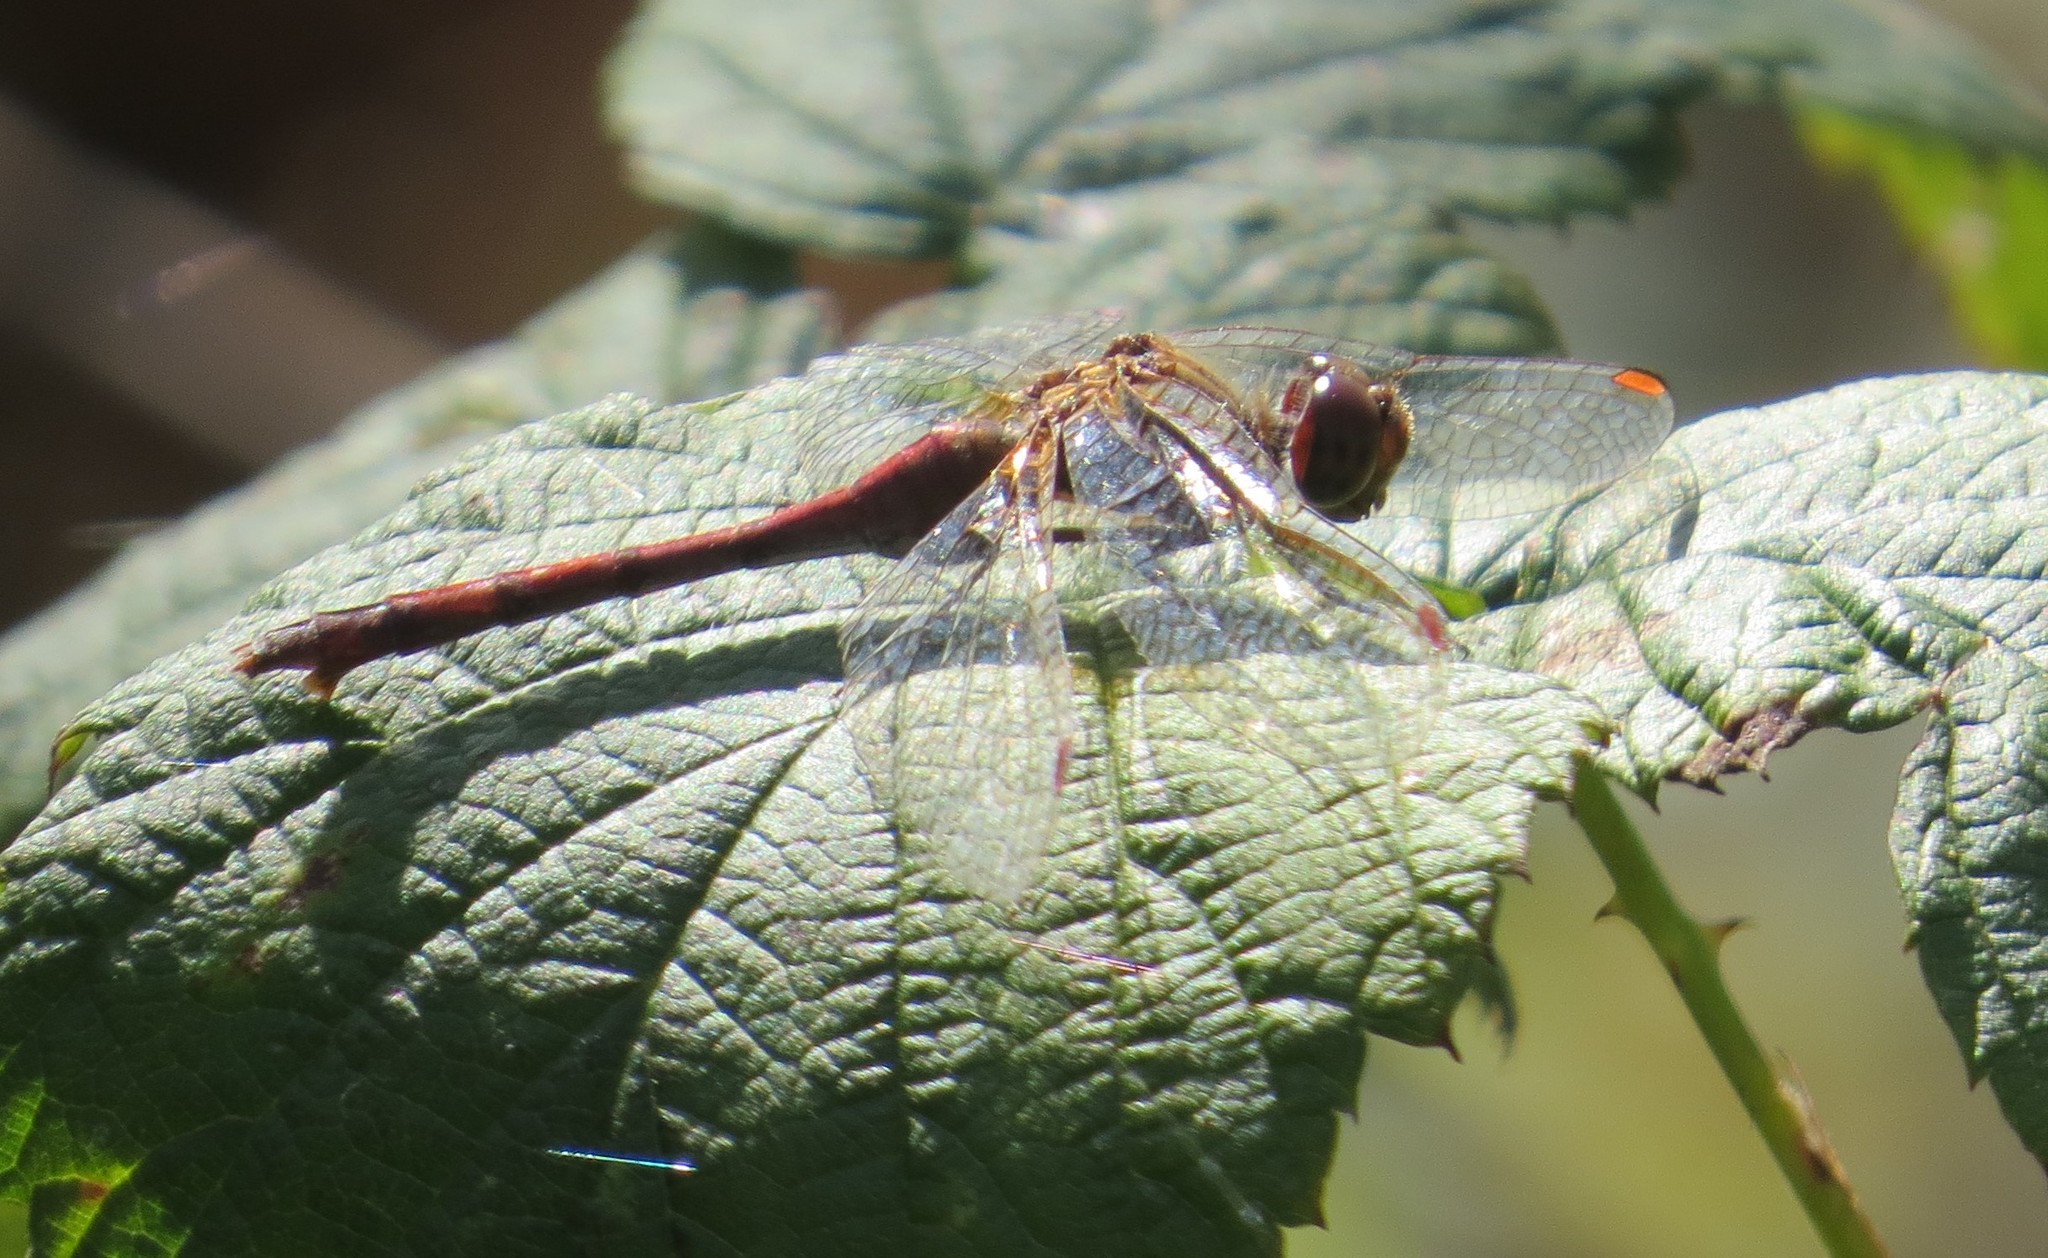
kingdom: Animalia
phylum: Arthropoda
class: Insecta
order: Odonata
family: Libellulidae
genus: Sympetrum
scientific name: Sympetrum vicinum
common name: Autumn meadowhawk
